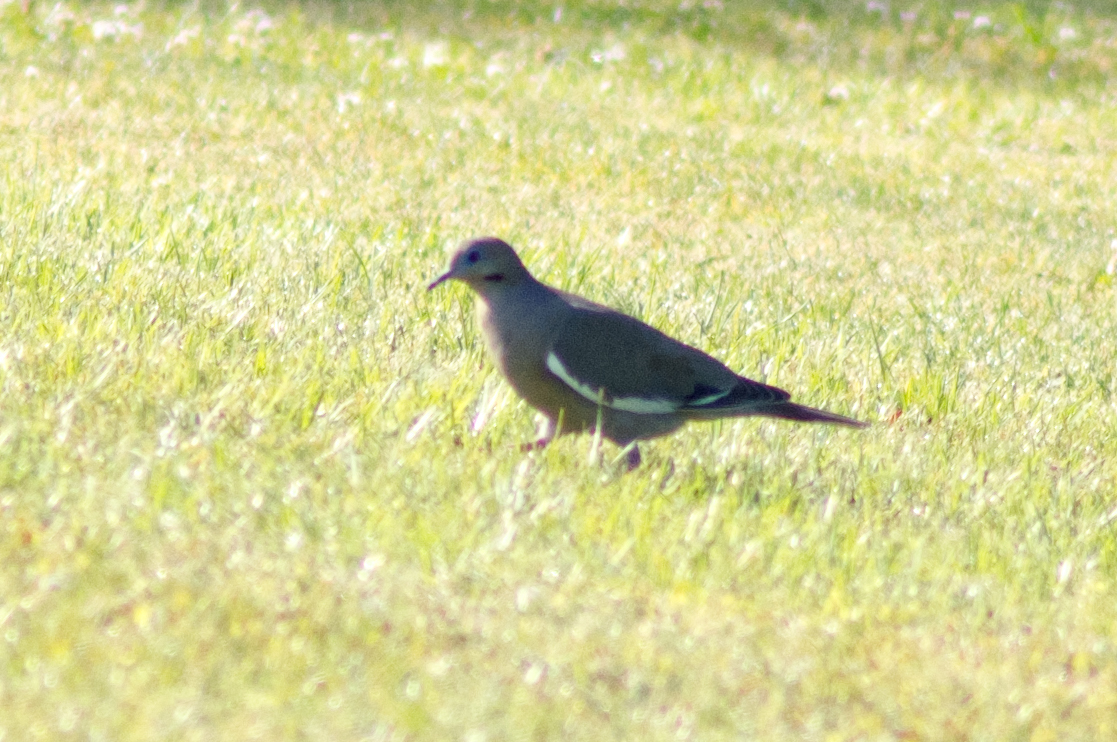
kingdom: Animalia
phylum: Chordata
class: Aves
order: Columbiformes
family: Columbidae
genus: Zenaida
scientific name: Zenaida asiatica
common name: White-winged dove
